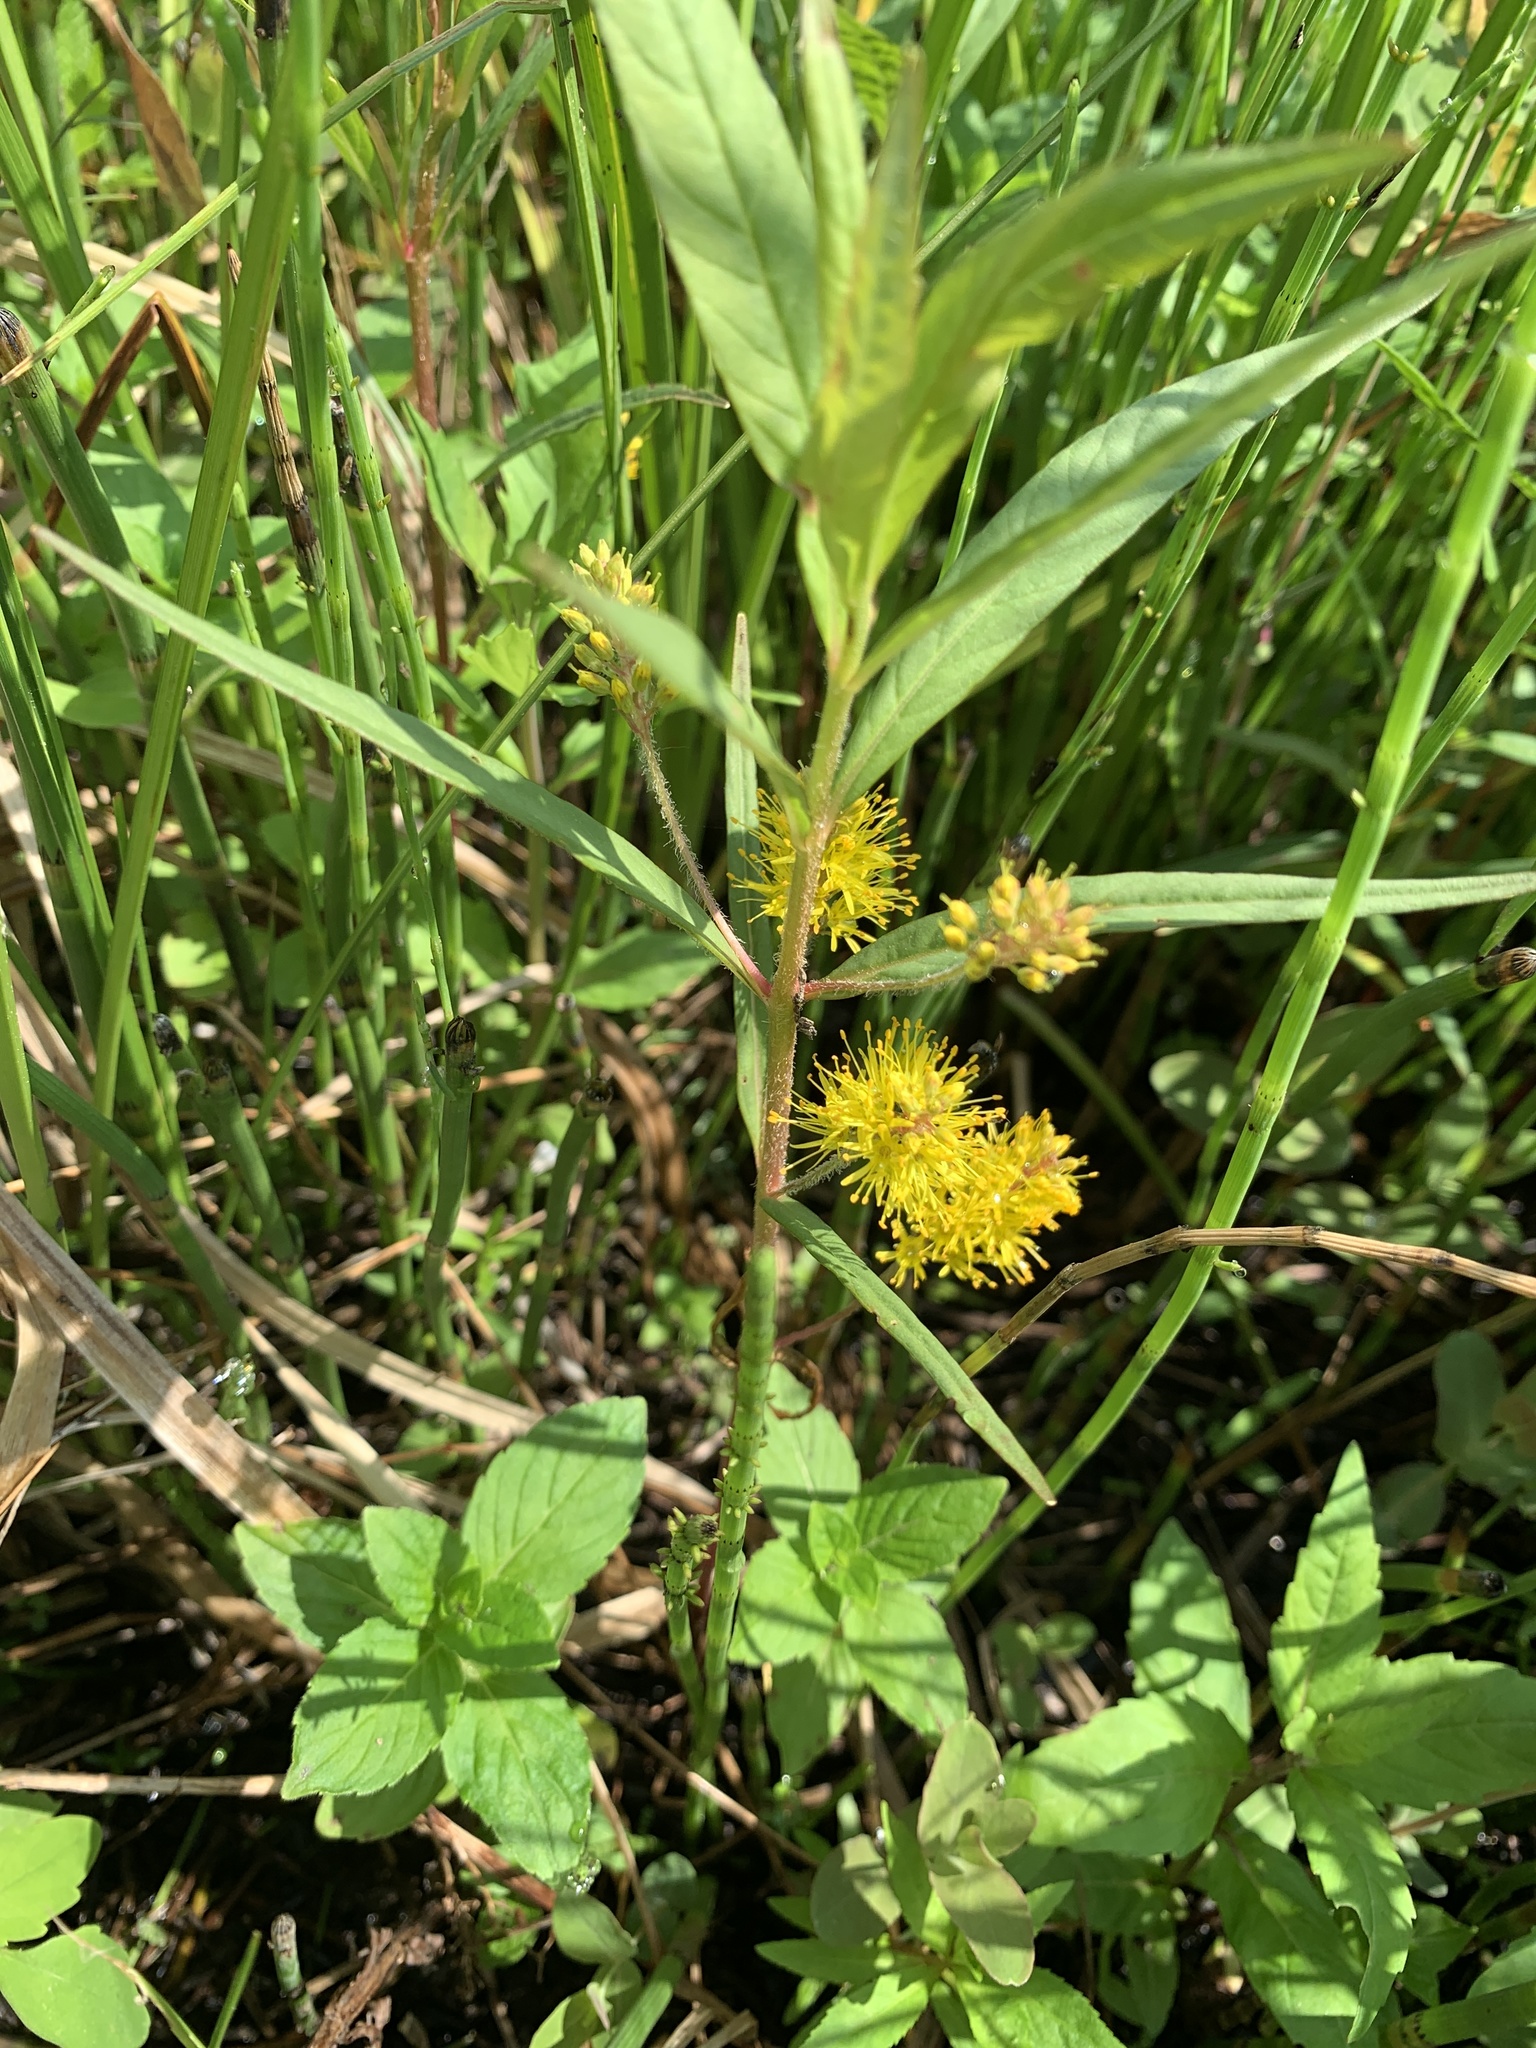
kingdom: Plantae
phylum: Tracheophyta
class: Magnoliopsida
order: Ericales
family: Primulaceae
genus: Lysimachia
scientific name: Lysimachia thyrsiflora
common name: Tufted loosestrife
